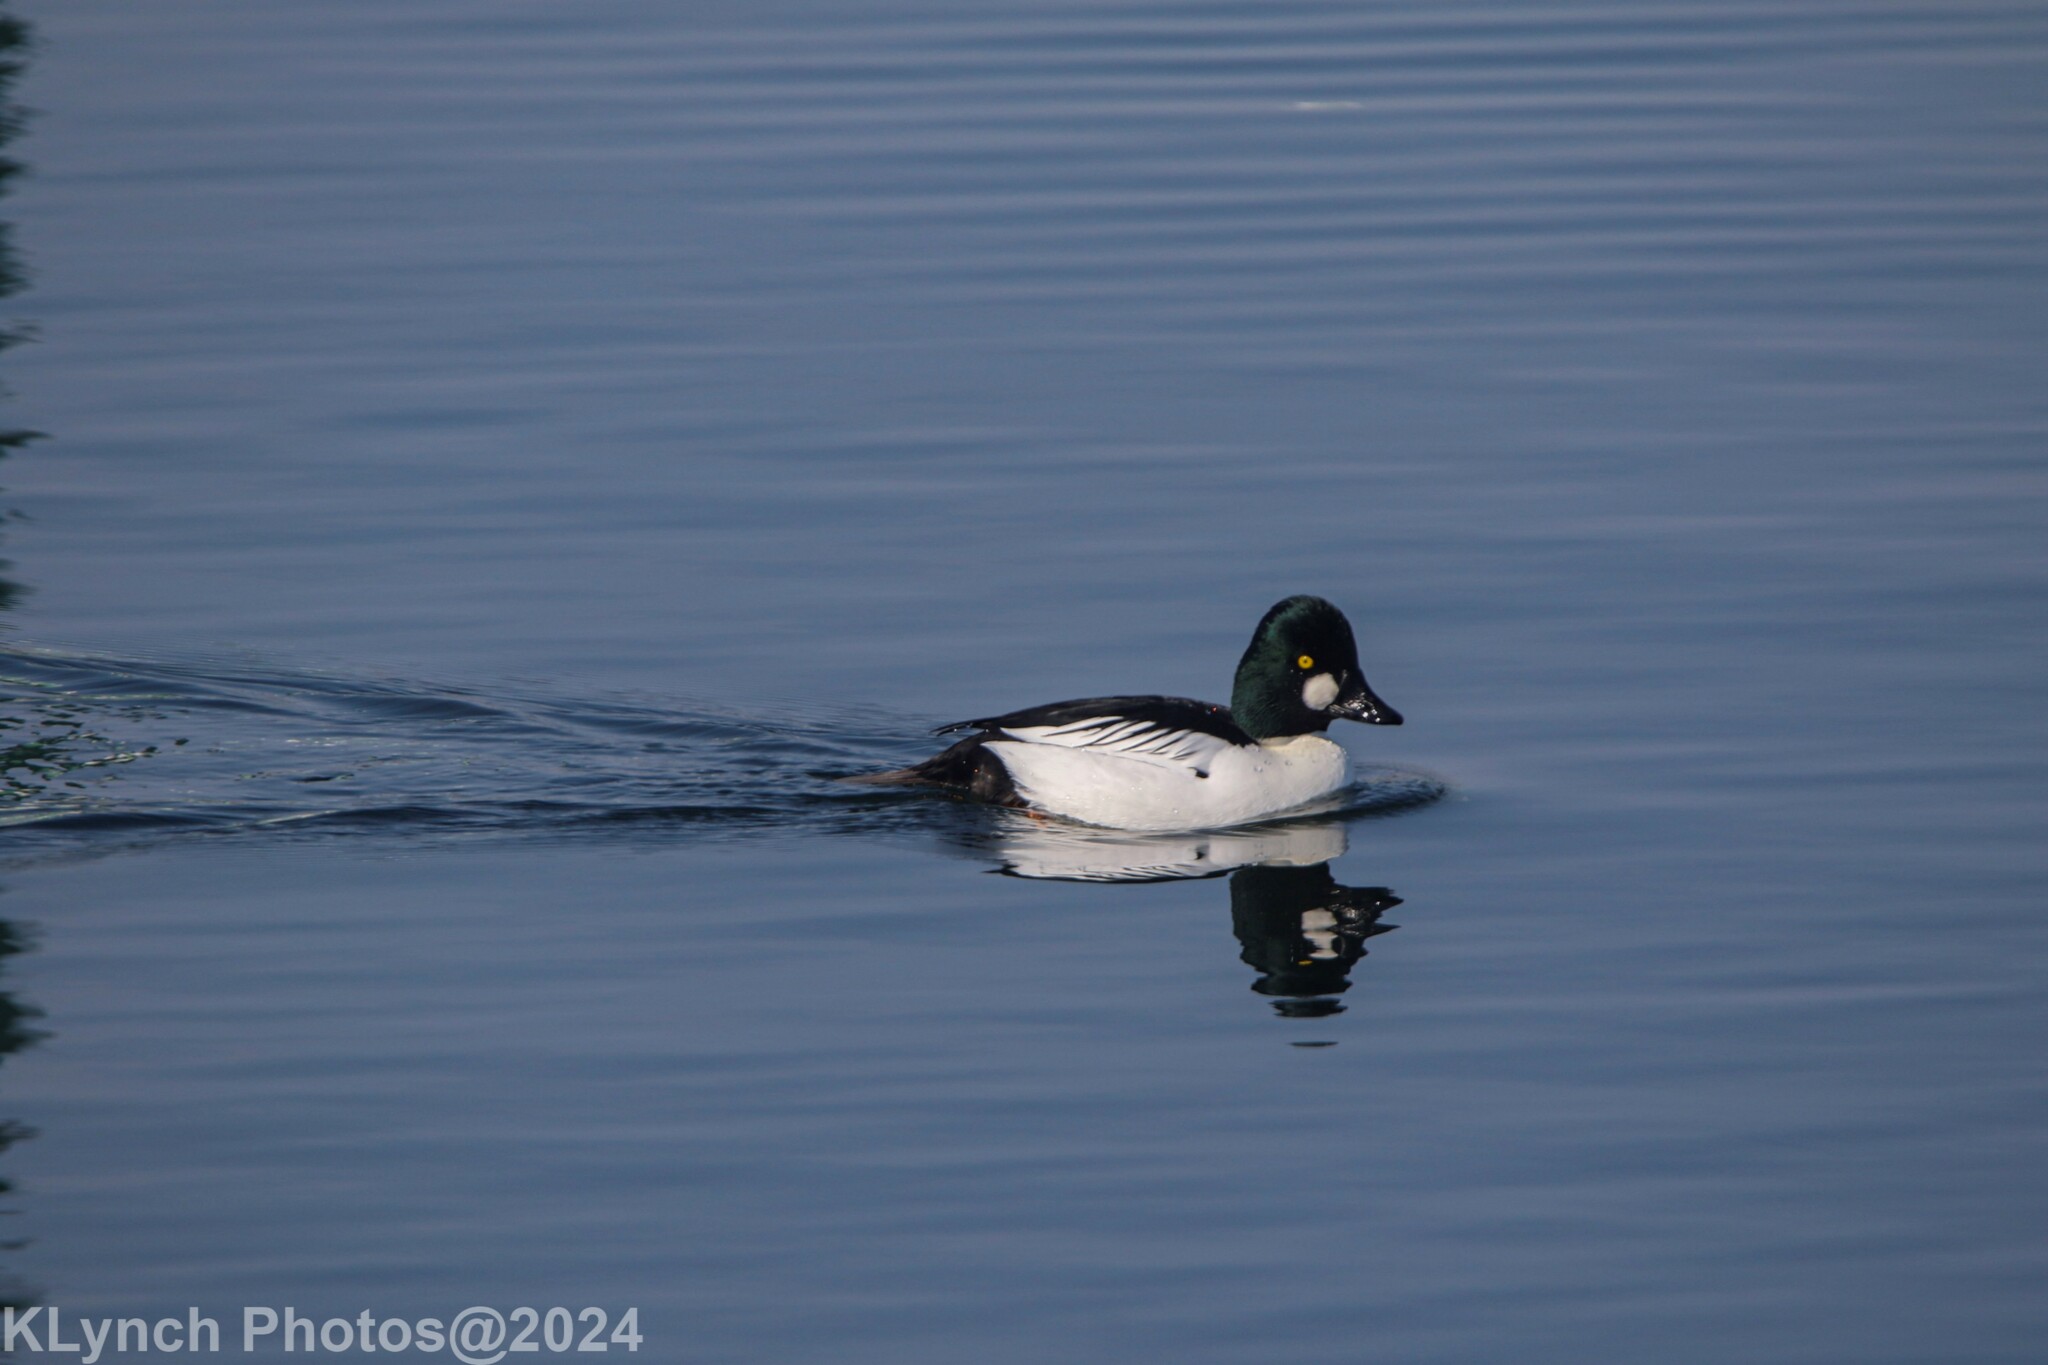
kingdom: Animalia
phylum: Chordata
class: Aves
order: Anseriformes
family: Anatidae
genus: Bucephala
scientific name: Bucephala clangula
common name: Common goldeneye
